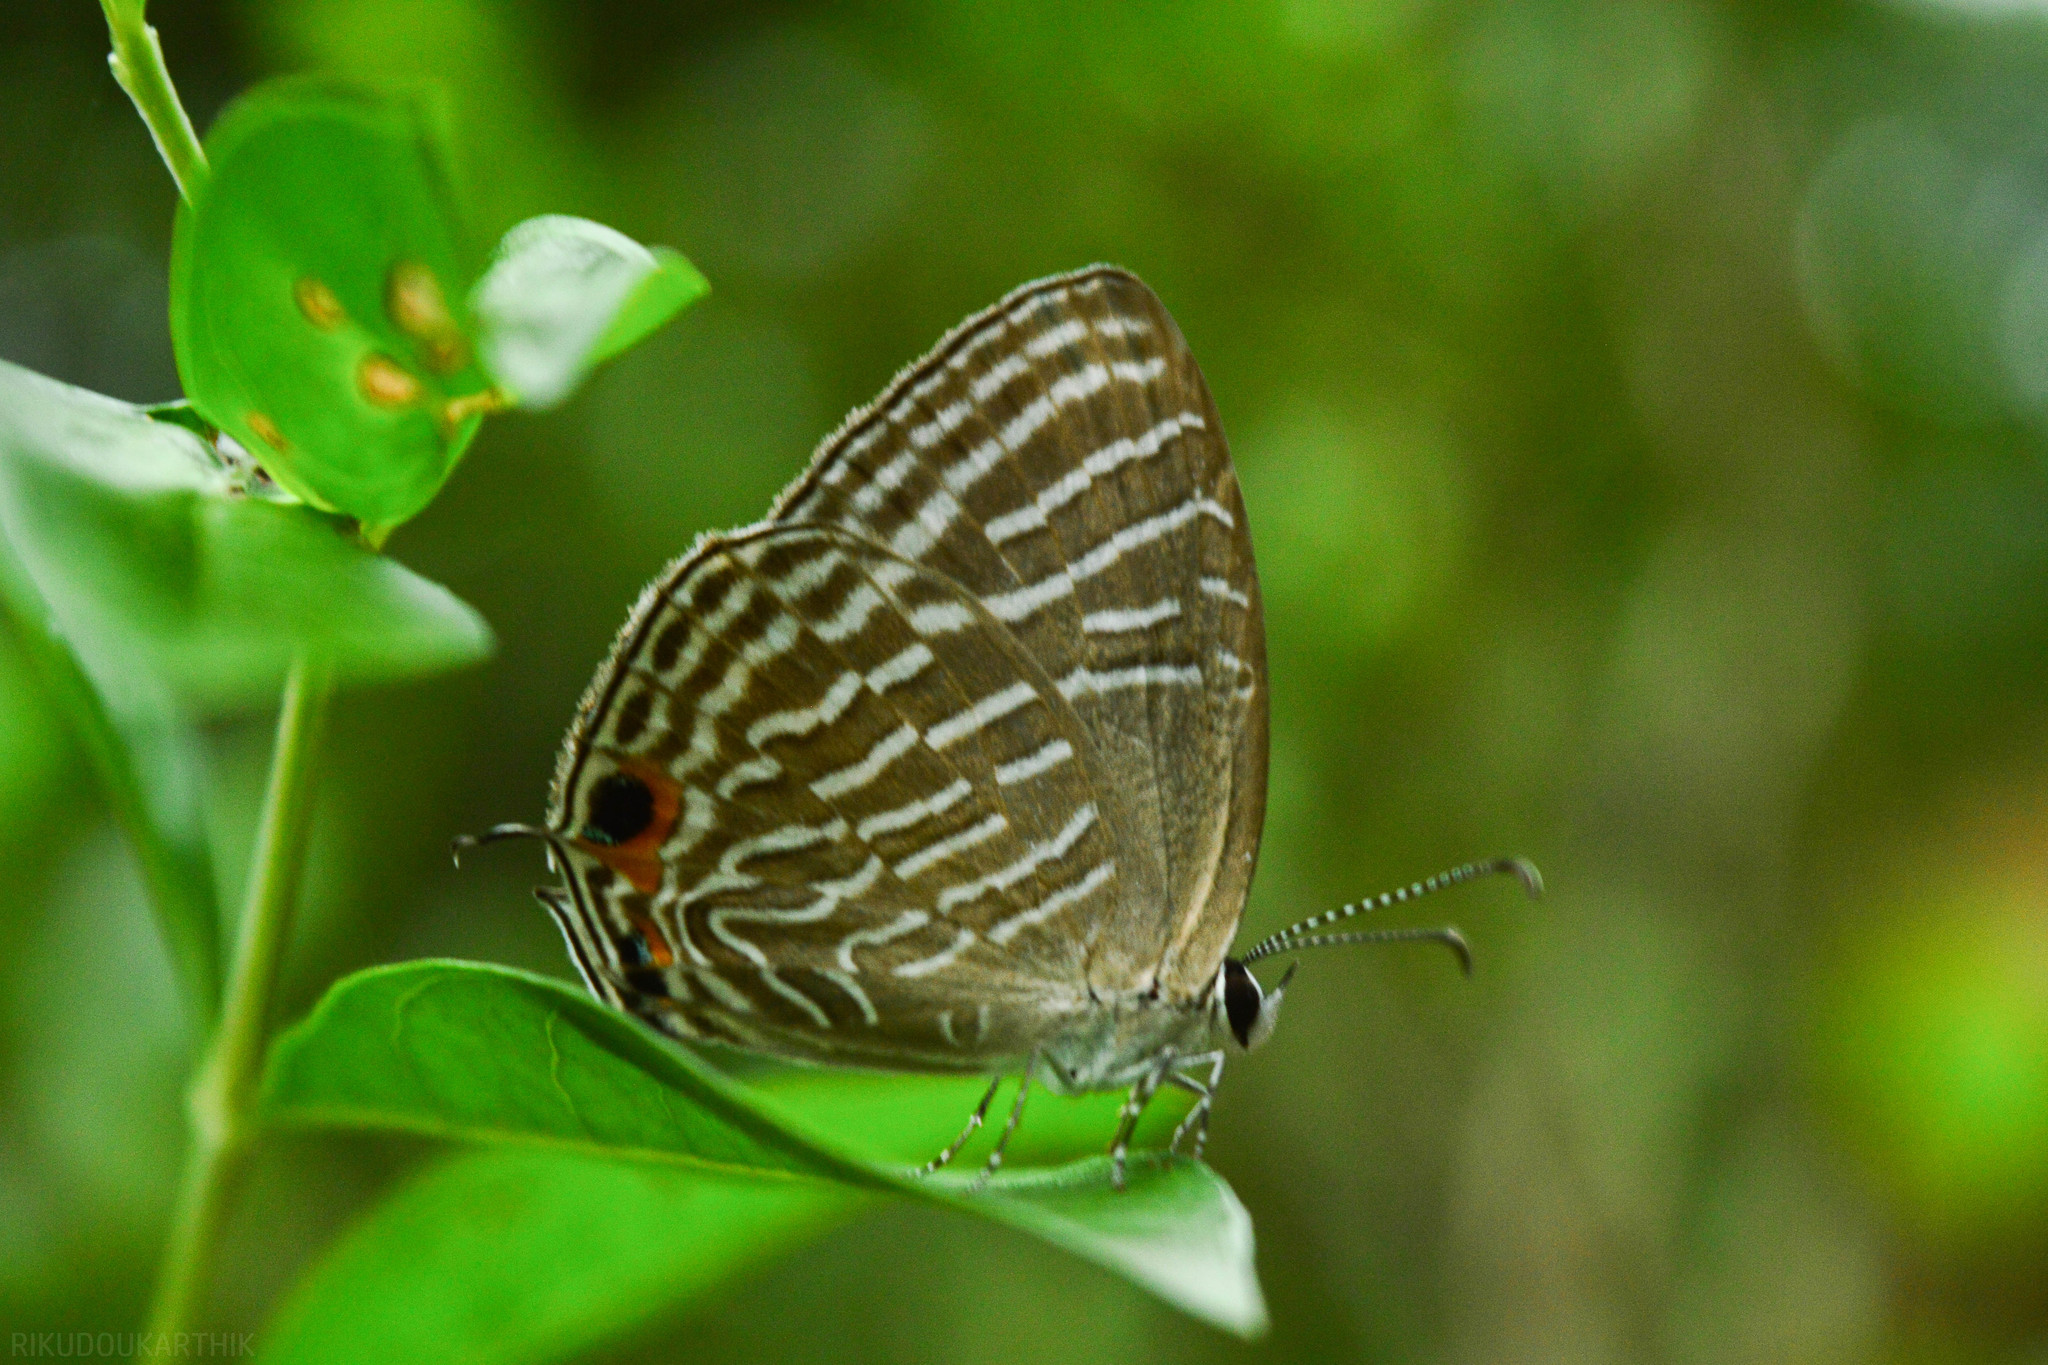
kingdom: Animalia
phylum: Arthropoda
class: Insecta
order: Lepidoptera
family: Lycaenidae
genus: Jamides
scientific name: Jamides celeno
